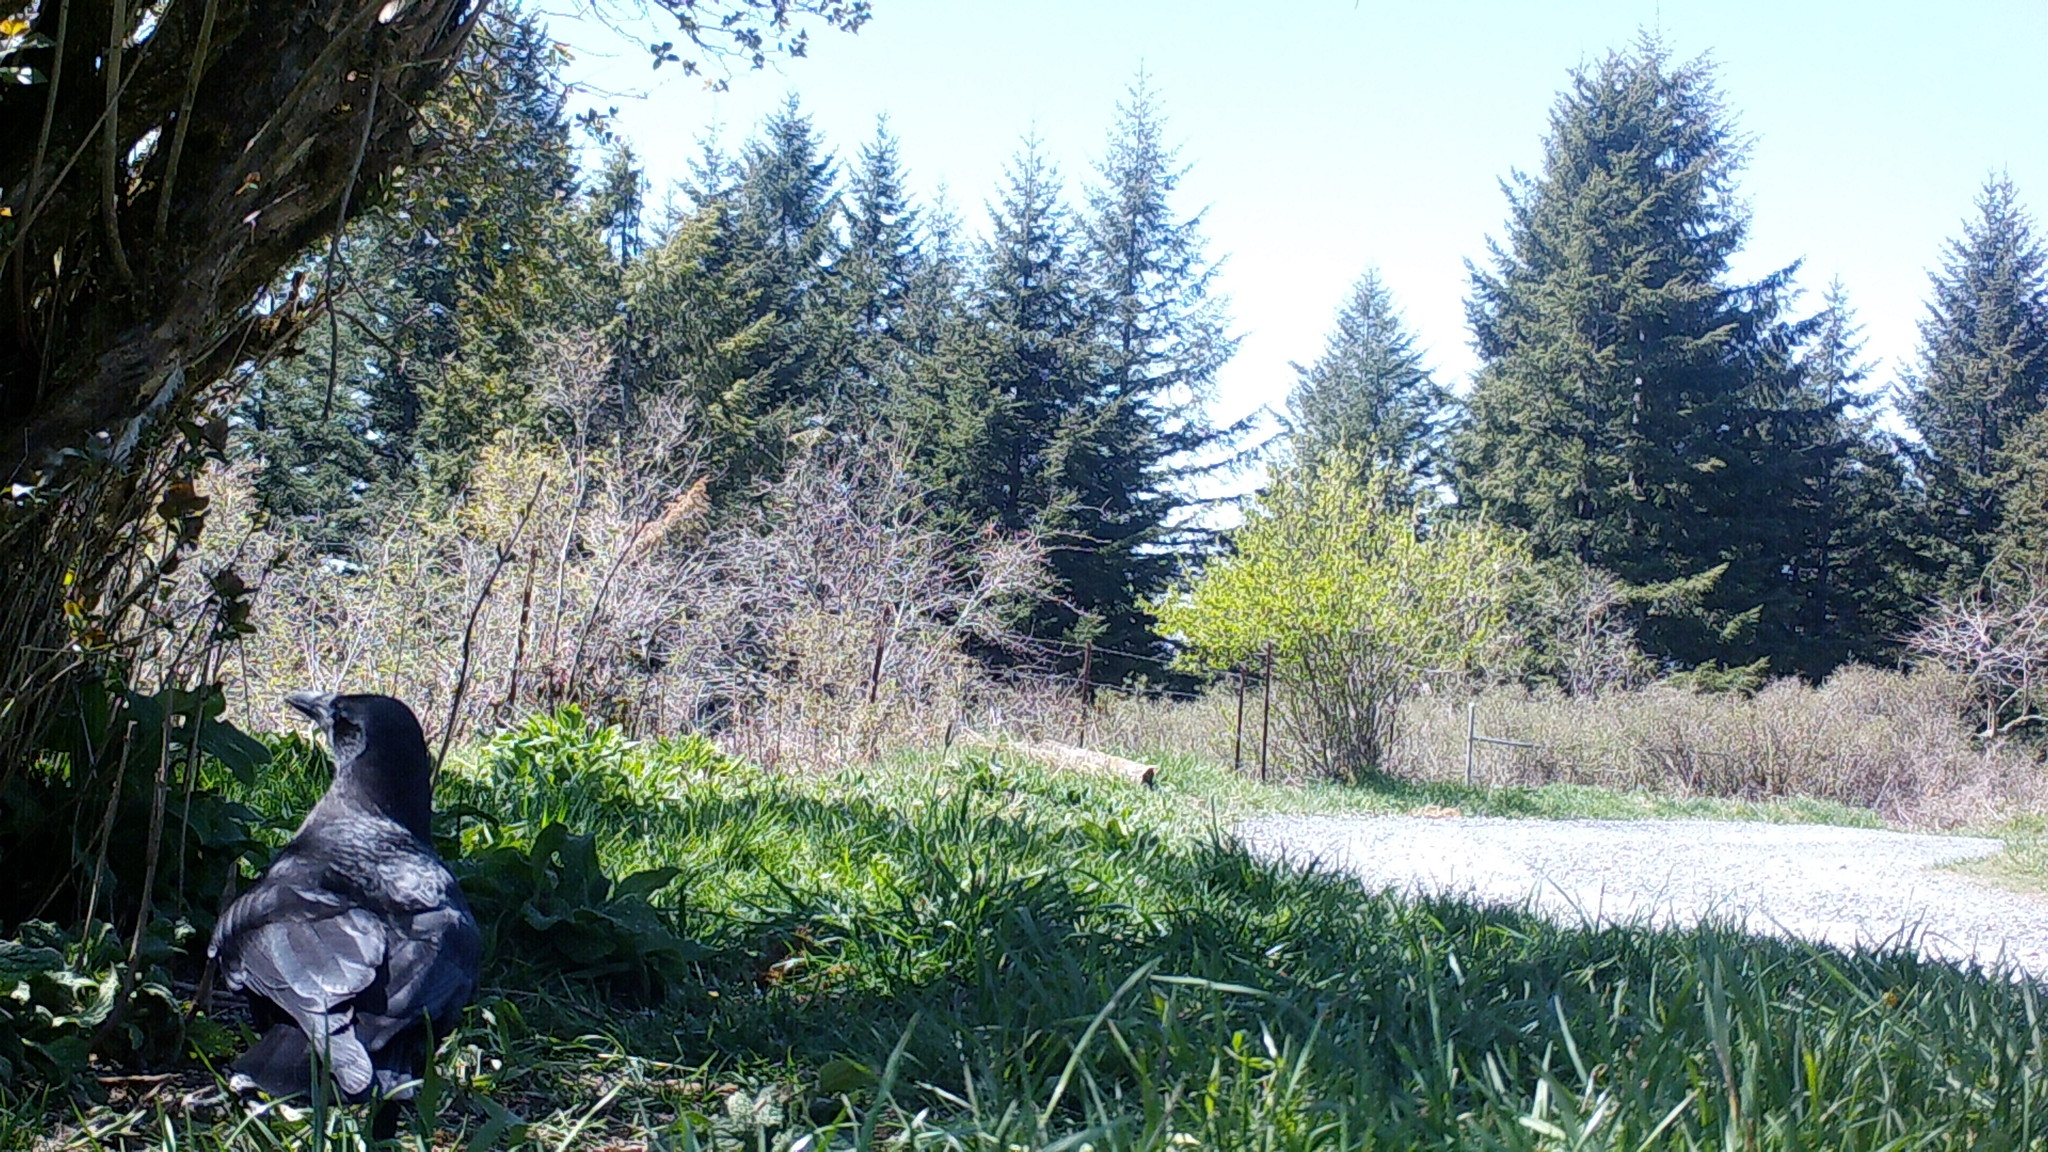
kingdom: Animalia
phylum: Chordata
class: Aves
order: Passeriformes
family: Corvidae
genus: Corvus
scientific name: Corvus brachyrhynchos
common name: American crow
